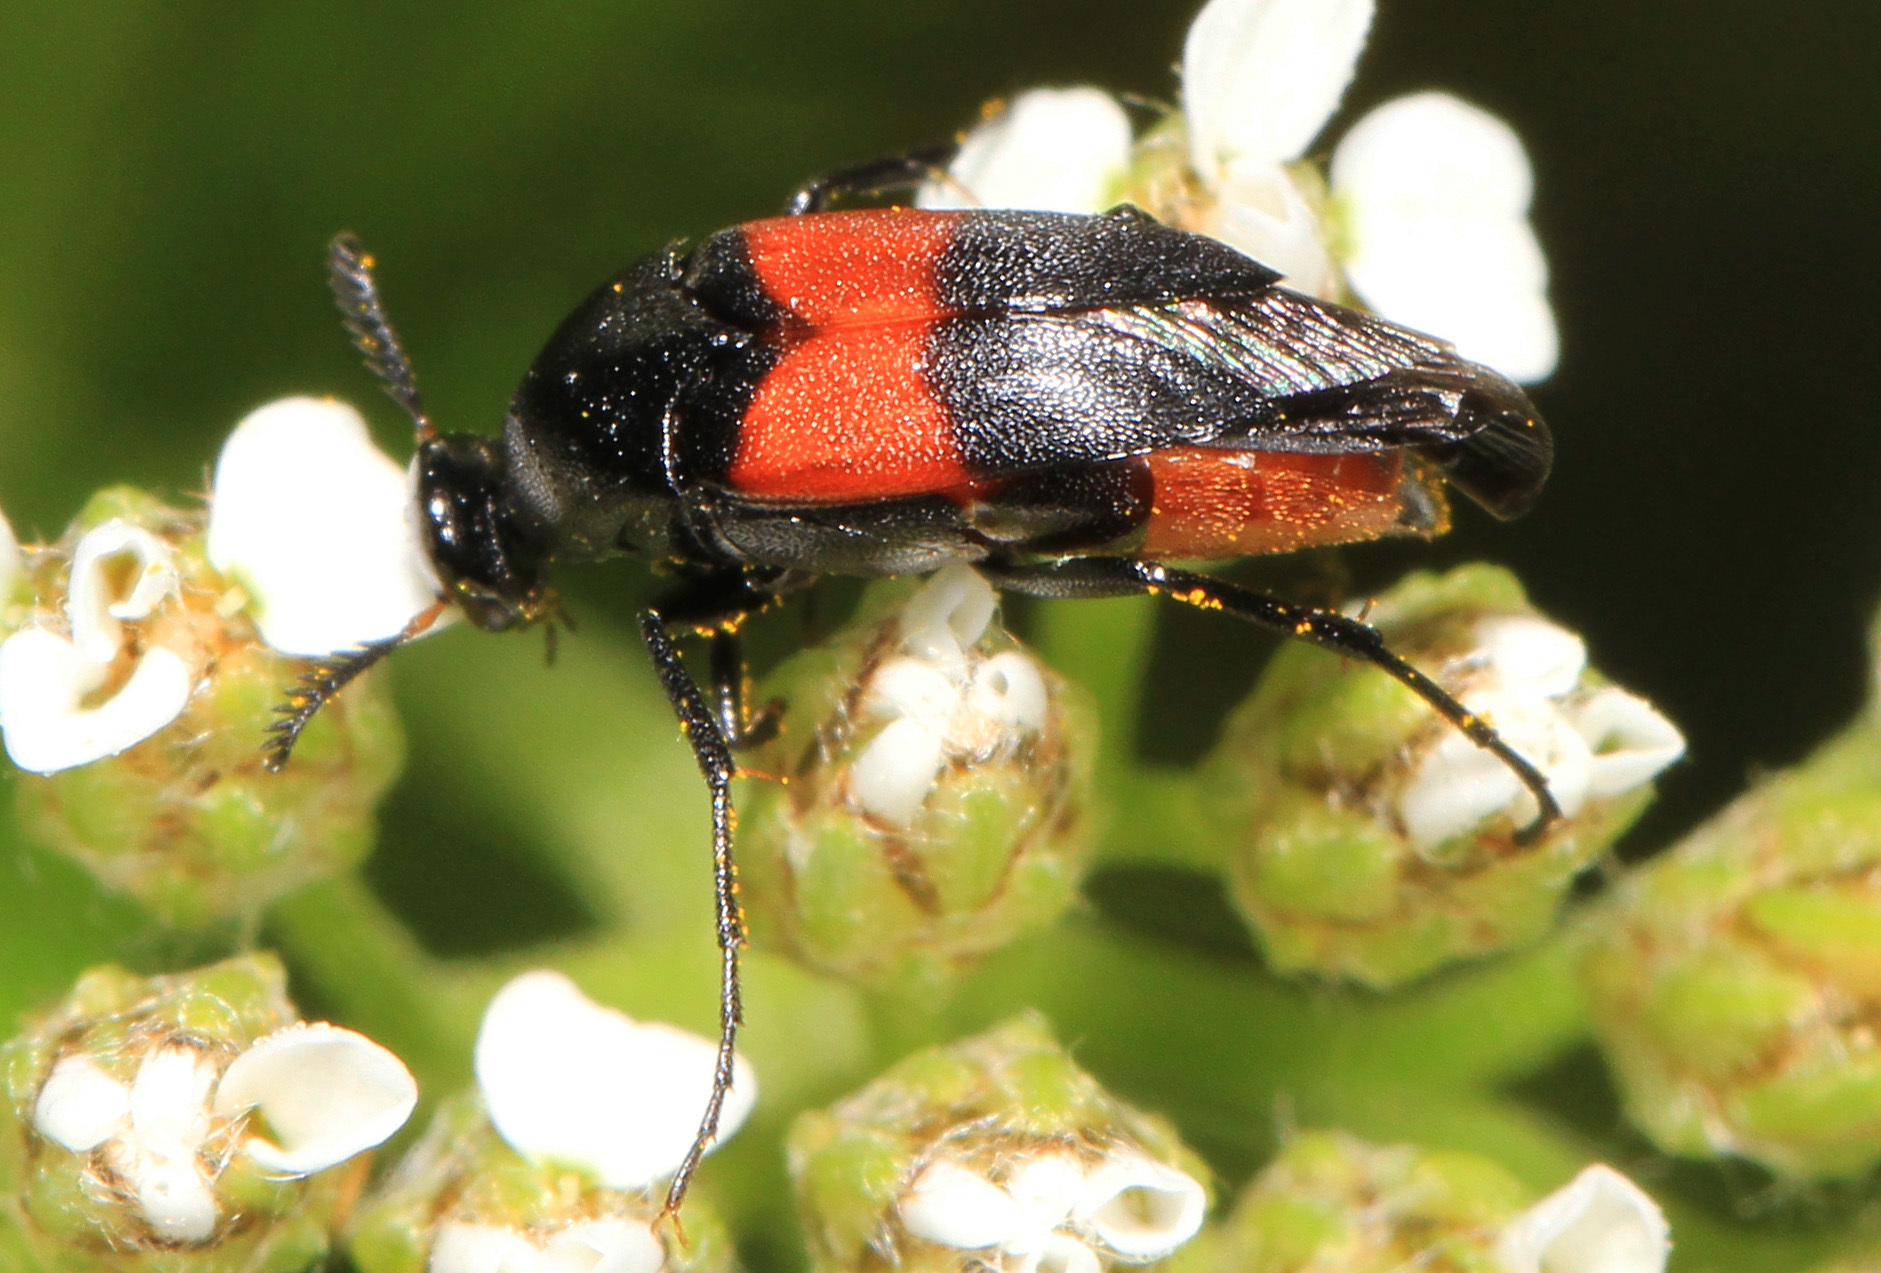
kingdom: Animalia
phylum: Arthropoda
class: Insecta
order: Coleoptera
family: Ripiphoridae
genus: Macrosiagon
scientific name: Macrosiagon cruentum
